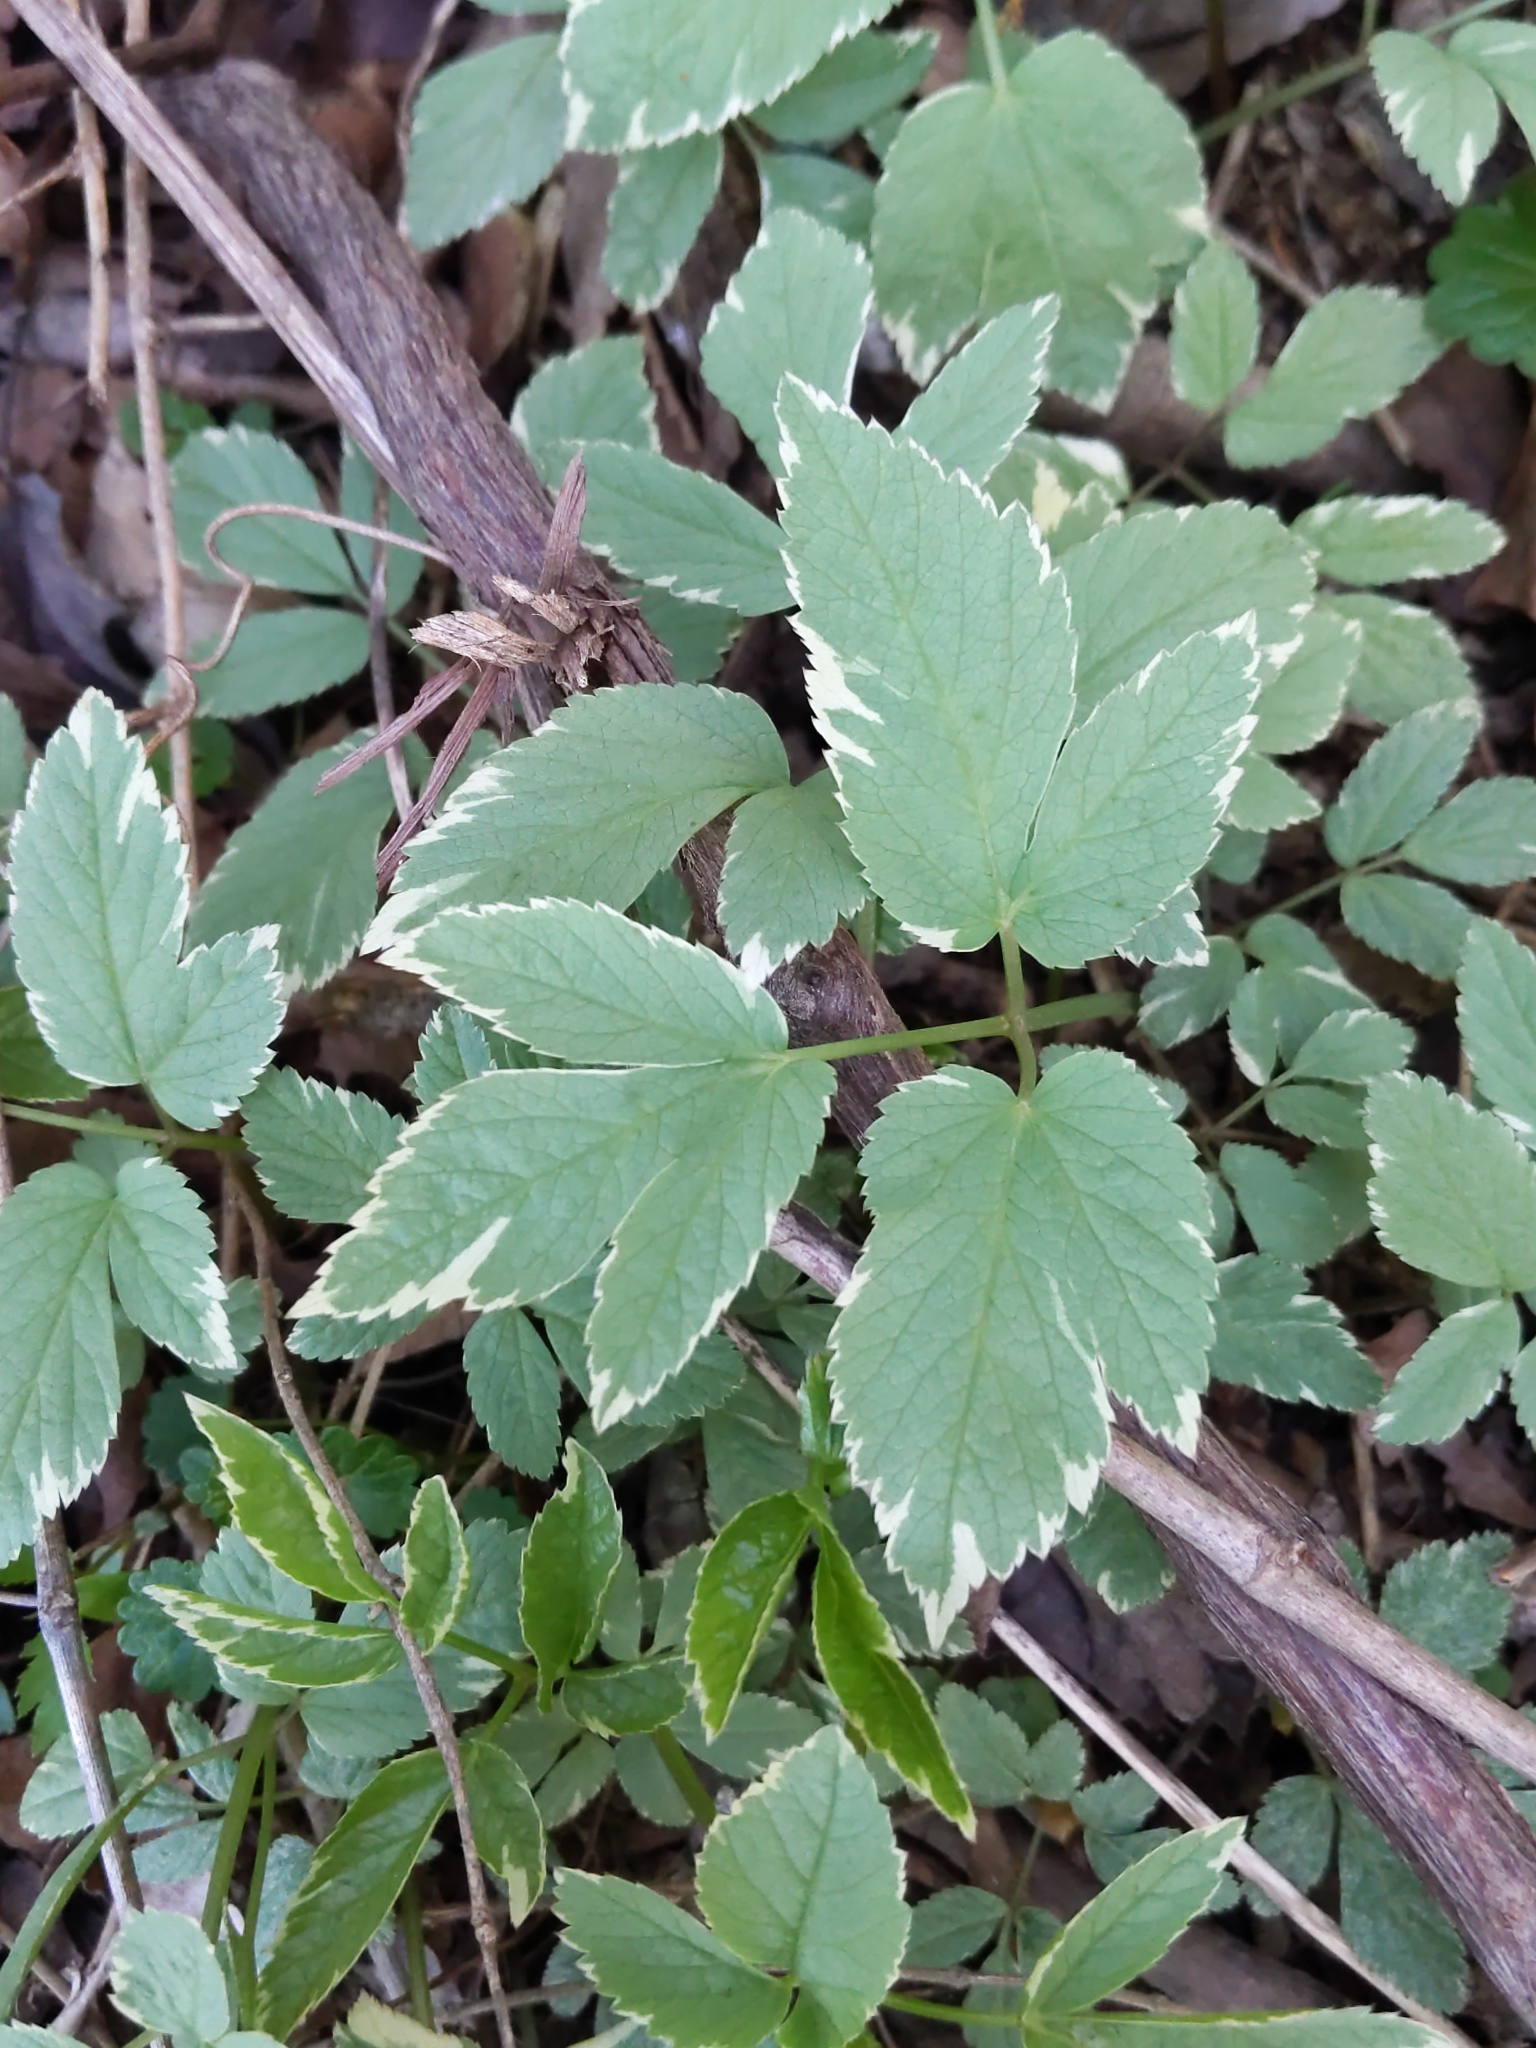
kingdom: Plantae
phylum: Tracheophyta
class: Magnoliopsida
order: Apiales
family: Apiaceae
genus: Aegopodium
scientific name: Aegopodium podagraria
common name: Ground-elder
